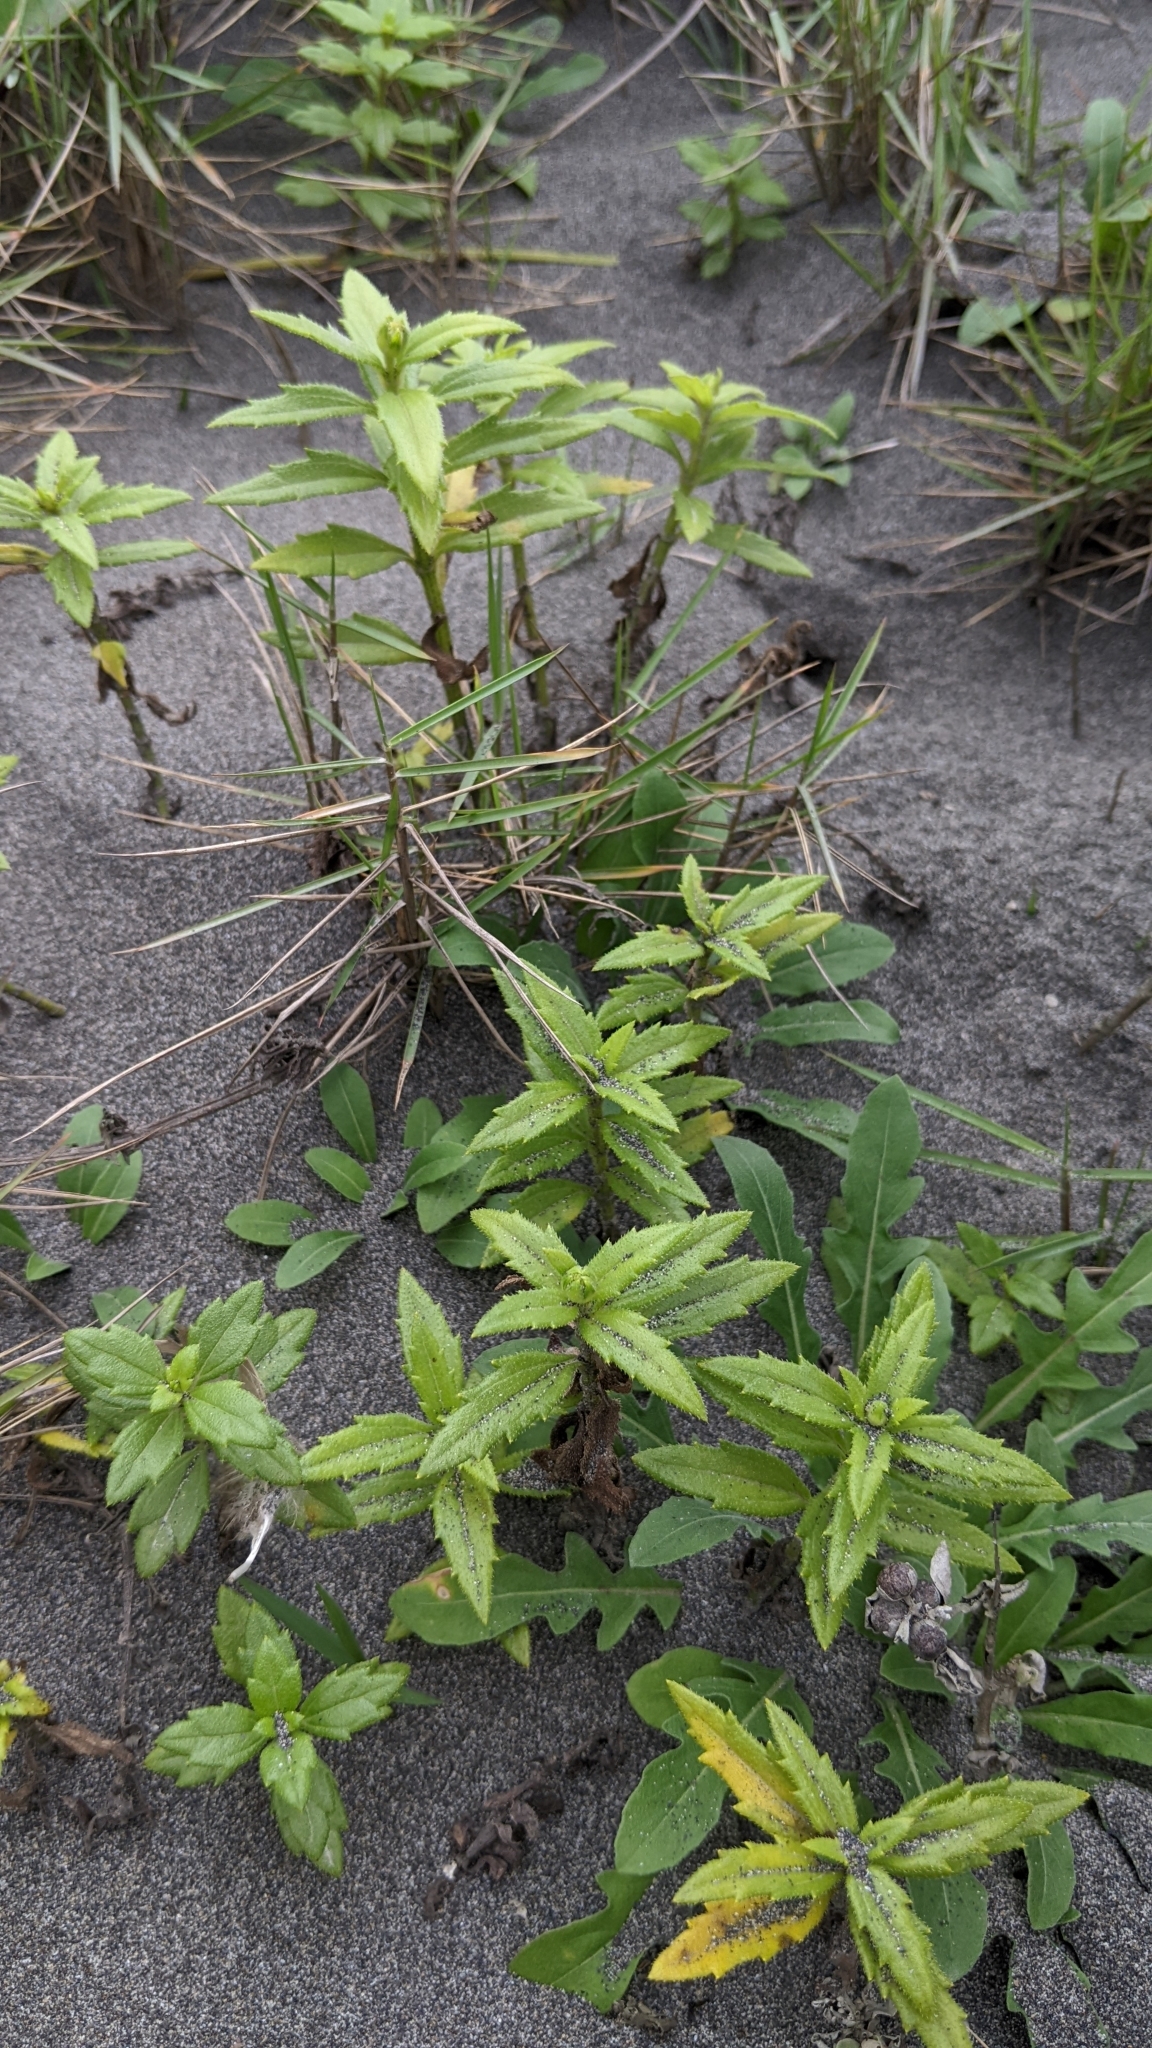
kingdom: Plantae
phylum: Tracheophyta
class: Magnoliopsida
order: Asterales
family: Asteraceae
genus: Melanthera
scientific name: Melanthera prostrata
